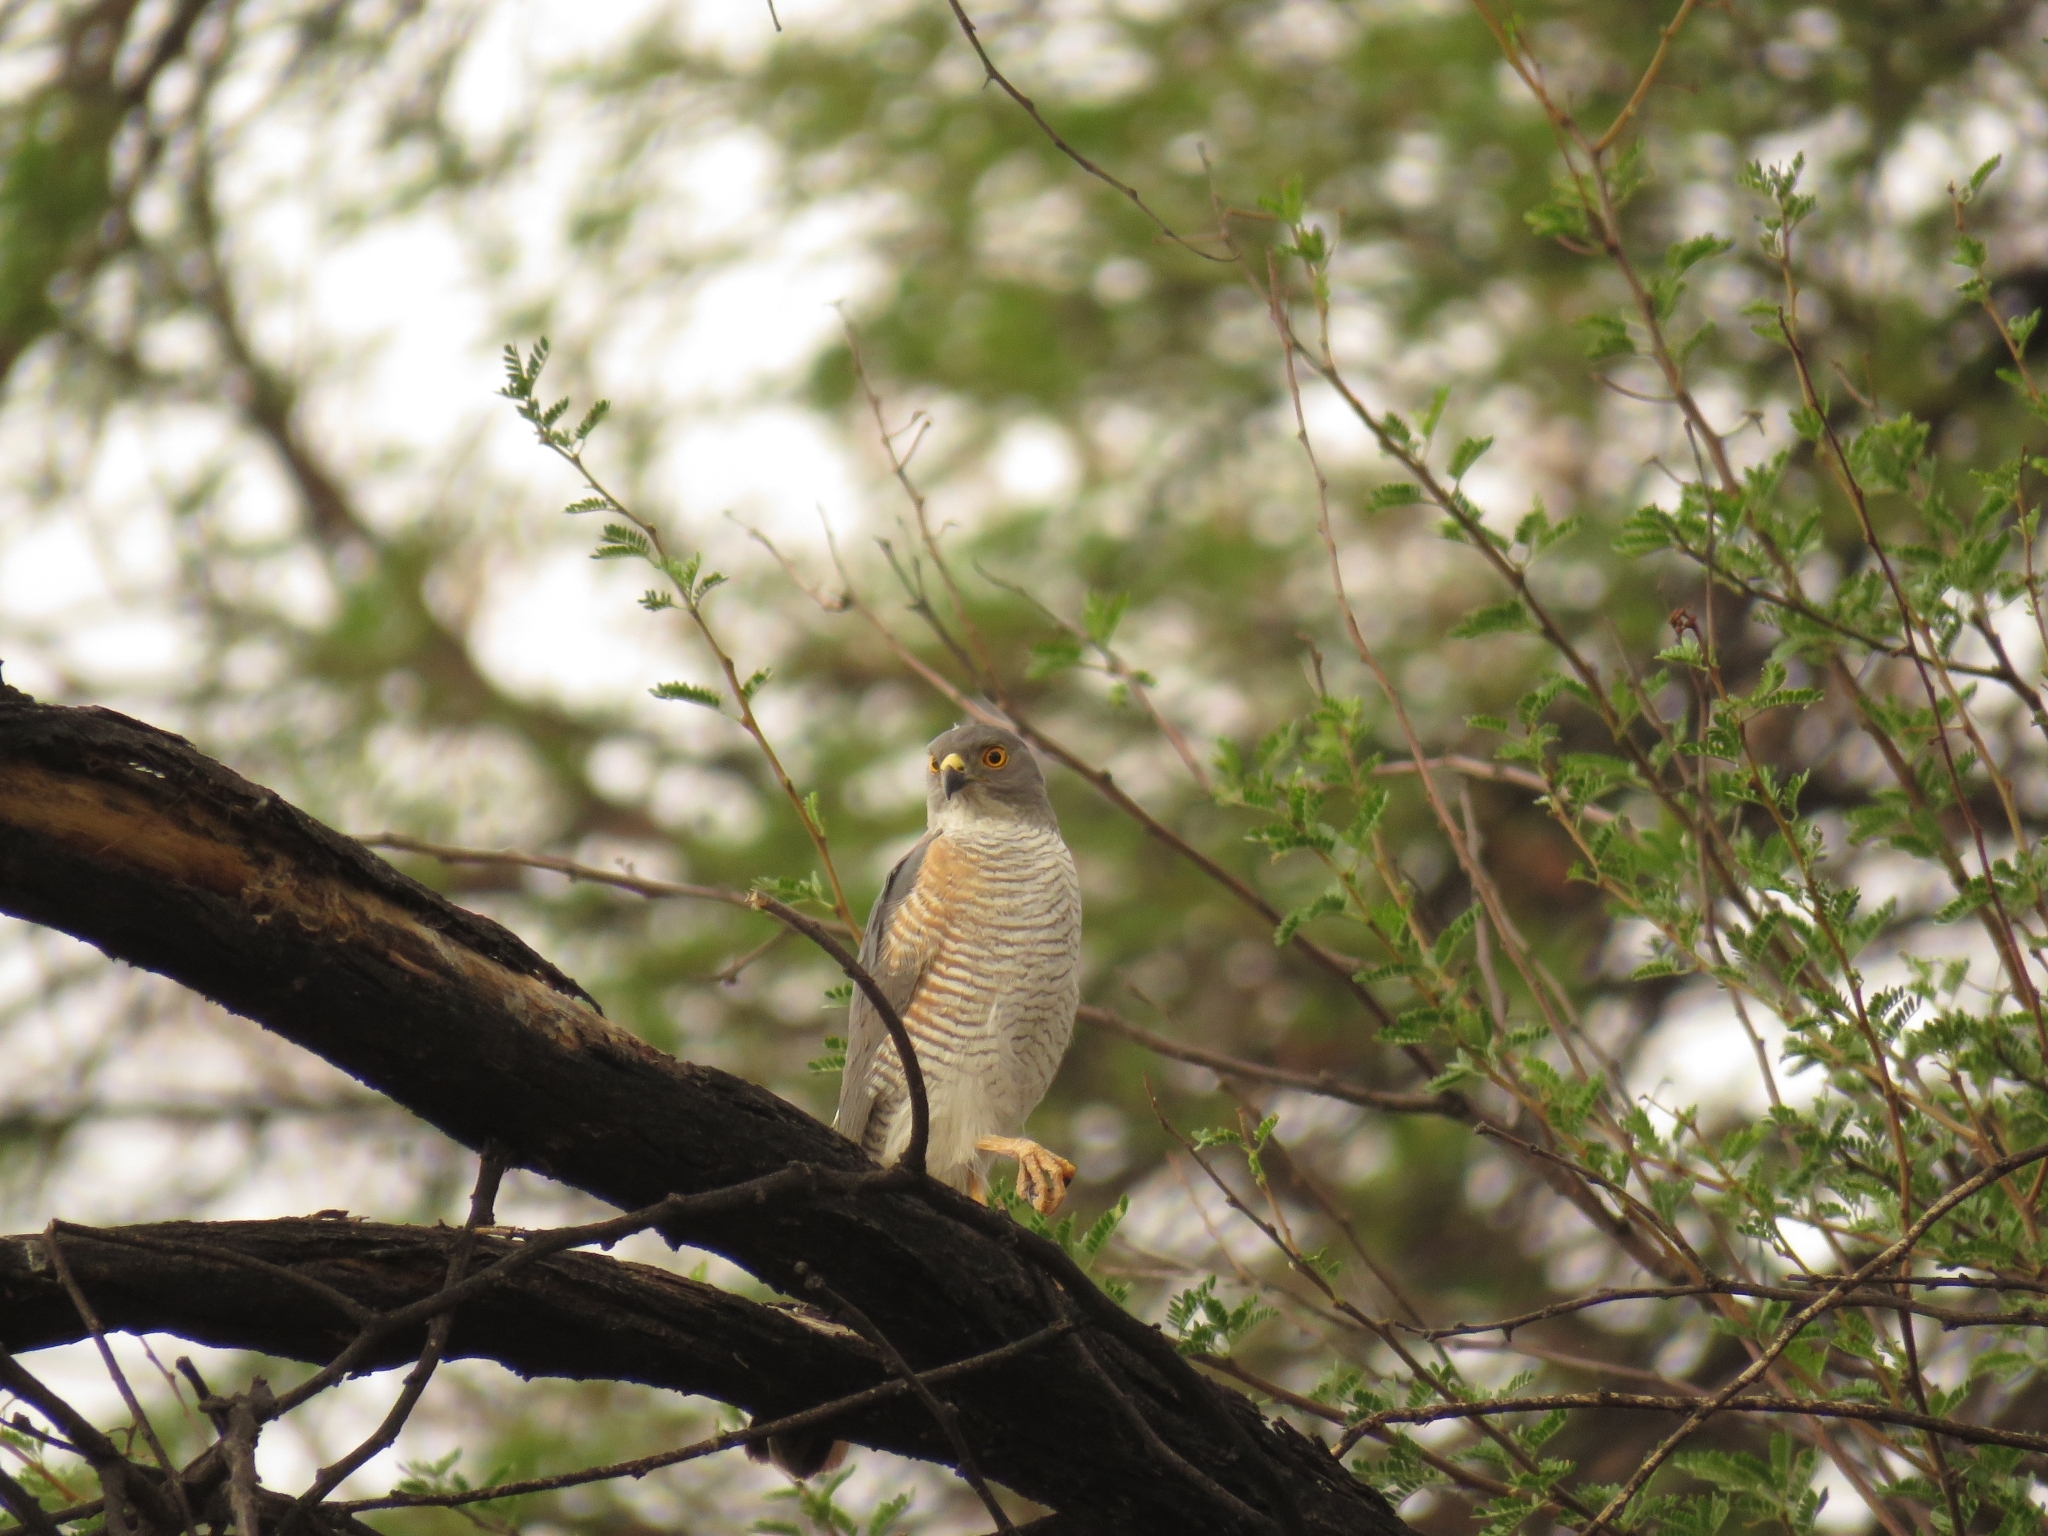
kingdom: Animalia
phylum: Chordata
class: Aves
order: Accipitriformes
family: Accipitridae
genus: Accipiter
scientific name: Accipiter minullus
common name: Little sparrowhawk
